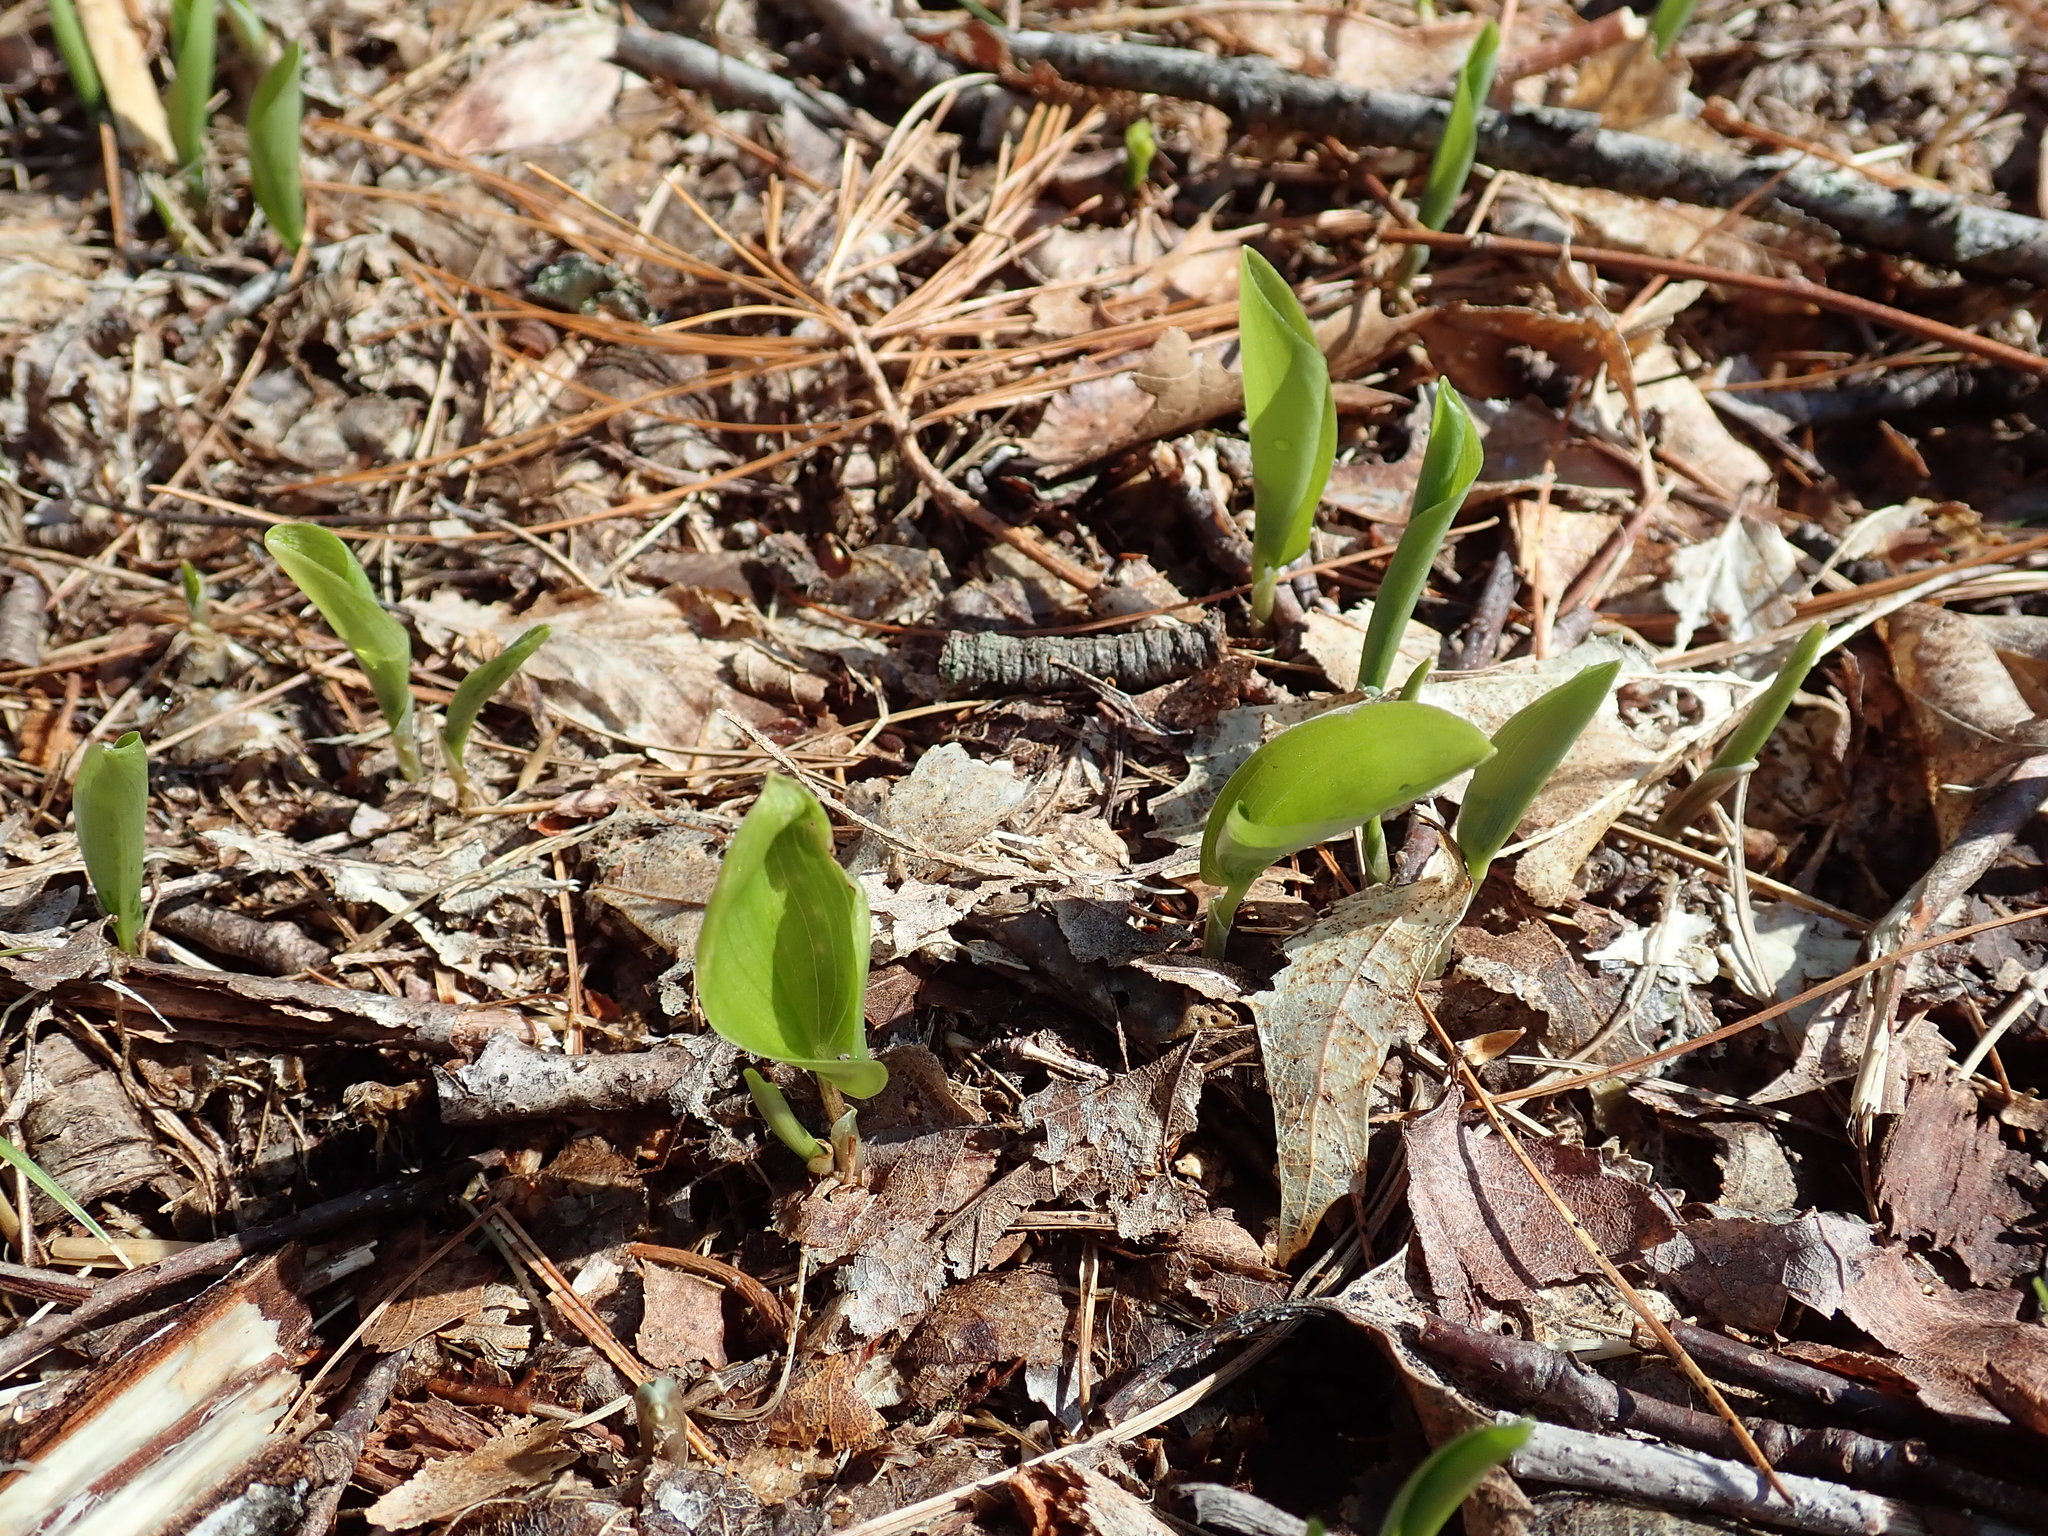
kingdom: Plantae
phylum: Tracheophyta
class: Liliopsida
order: Asparagales
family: Asparagaceae
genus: Maianthemum
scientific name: Maianthemum canadense
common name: False lily-of-the-valley
